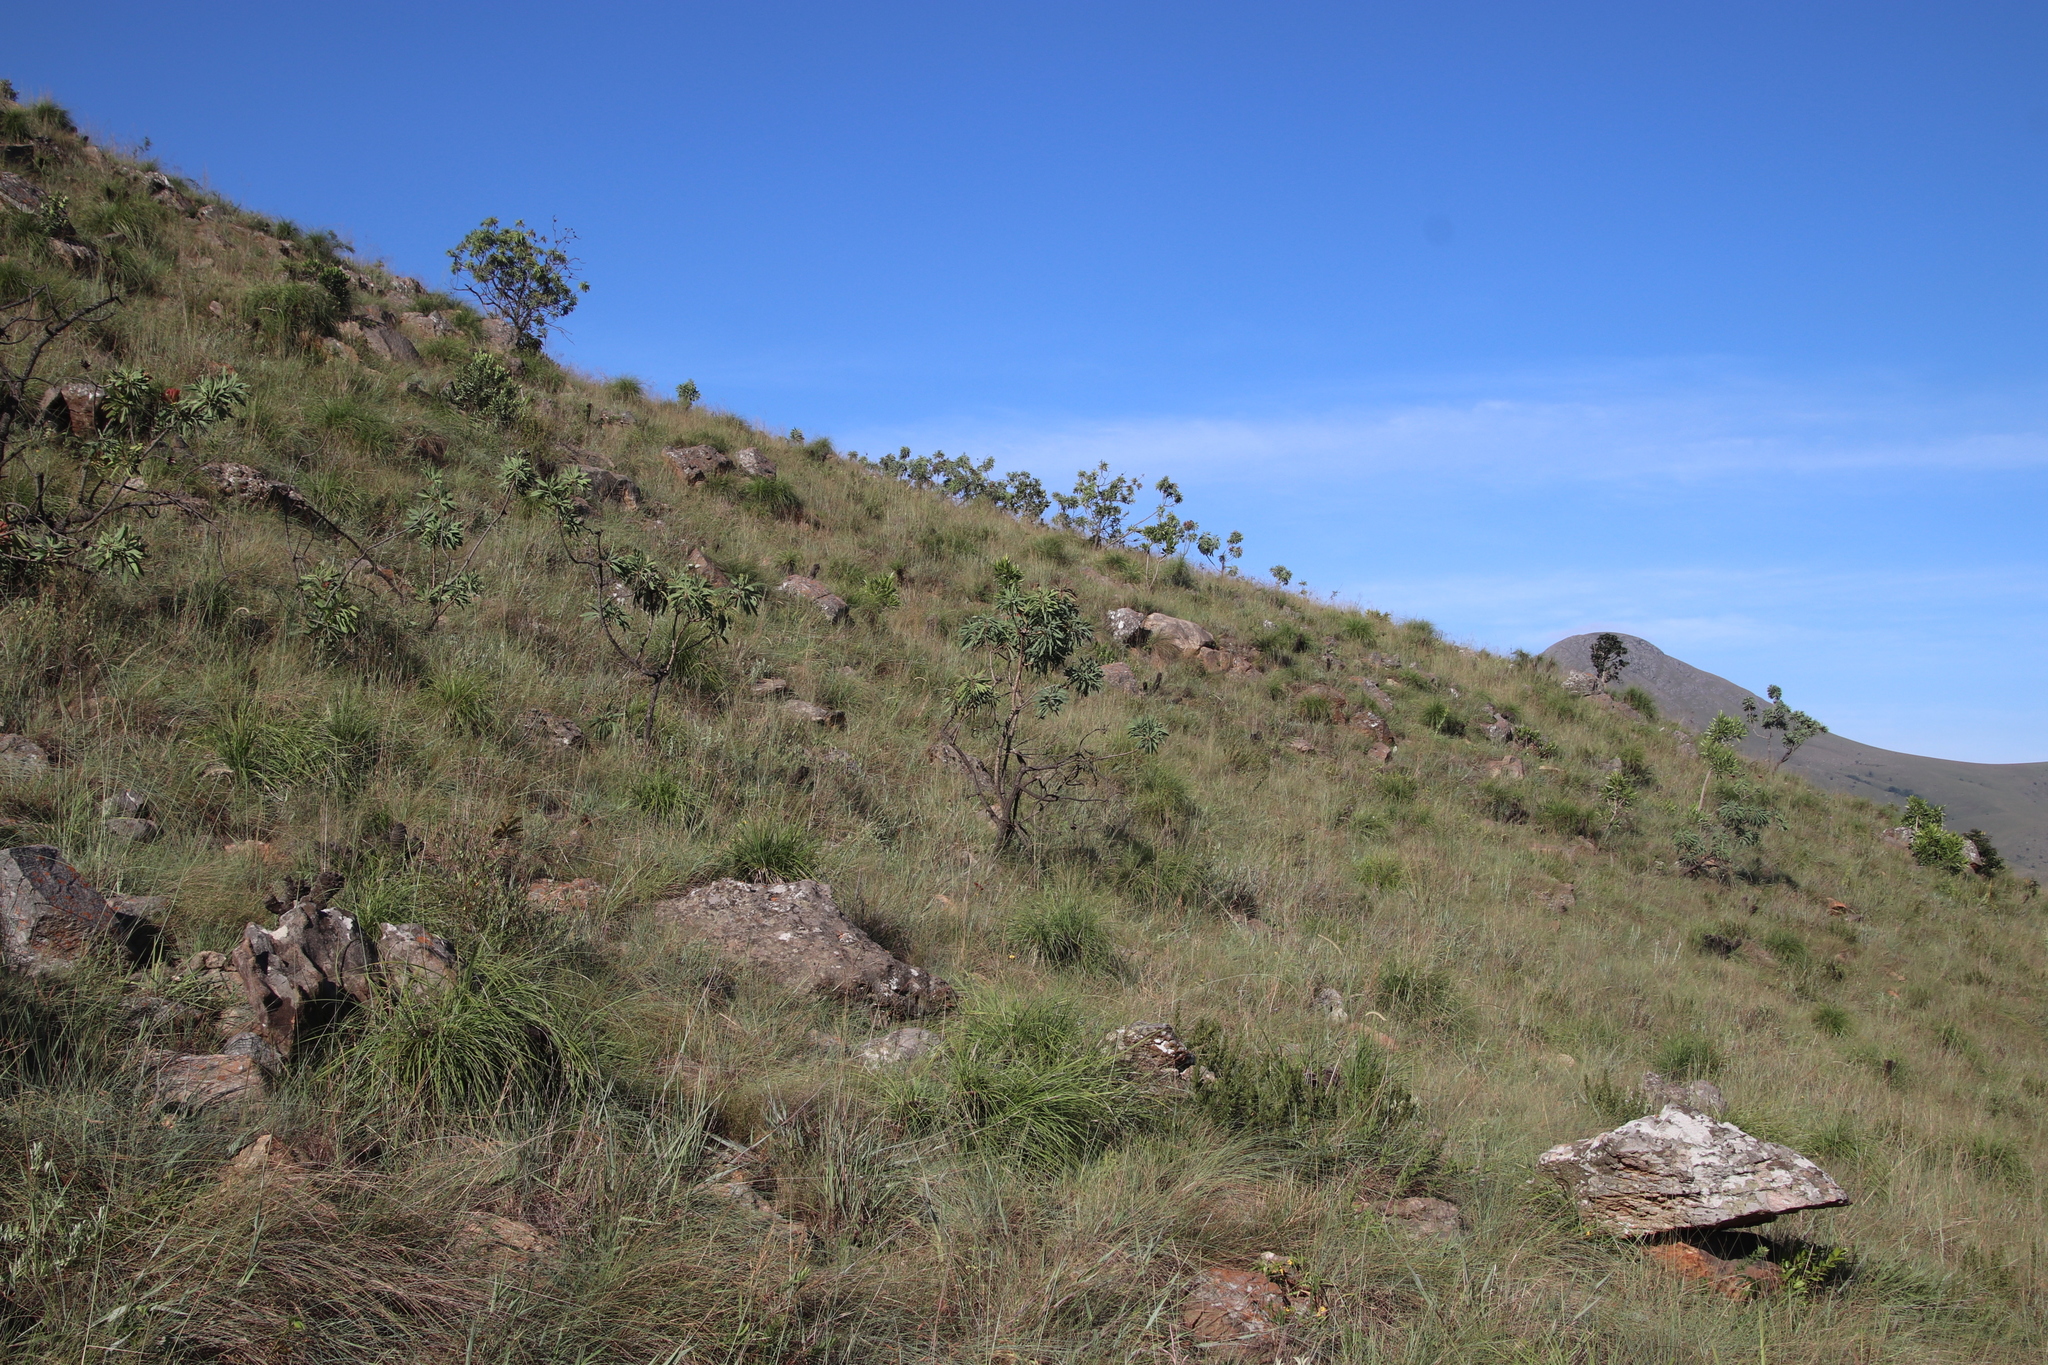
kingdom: Plantae
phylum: Tracheophyta
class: Magnoliopsida
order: Proteales
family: Proteaceae
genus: Protea
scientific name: Protea caffra
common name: Common sugarbush
